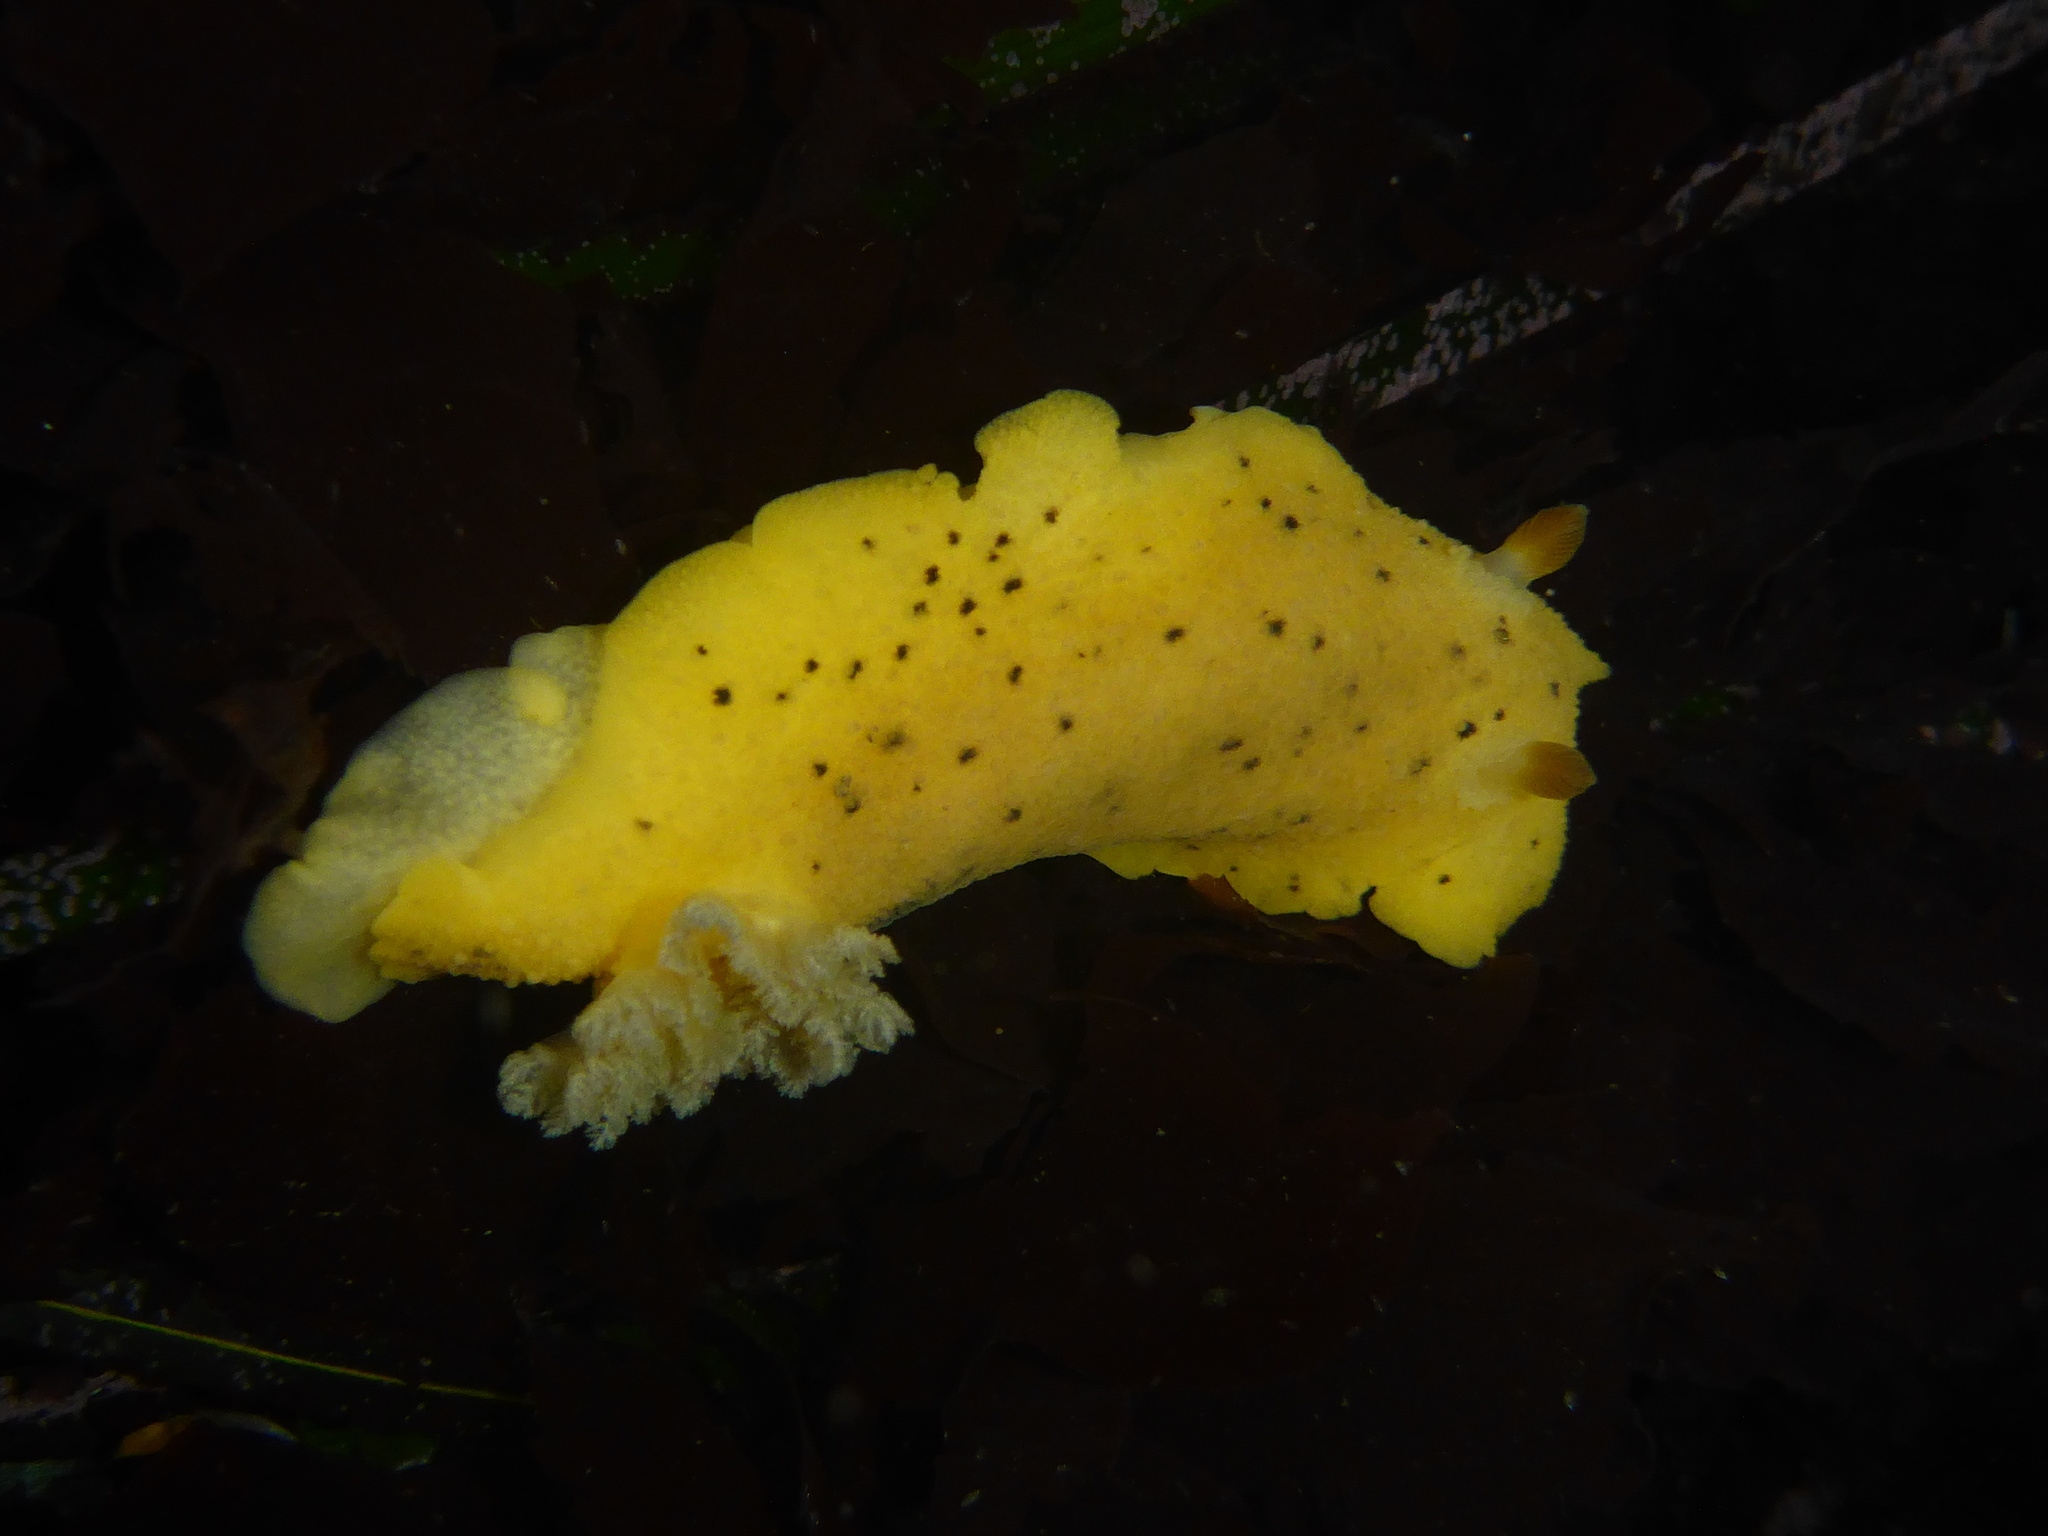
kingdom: Animalia
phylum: Mollusca
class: Gastropoda
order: Nudibranchia
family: Discodorididae
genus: Geitodoris
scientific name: Geitodoris heathi
